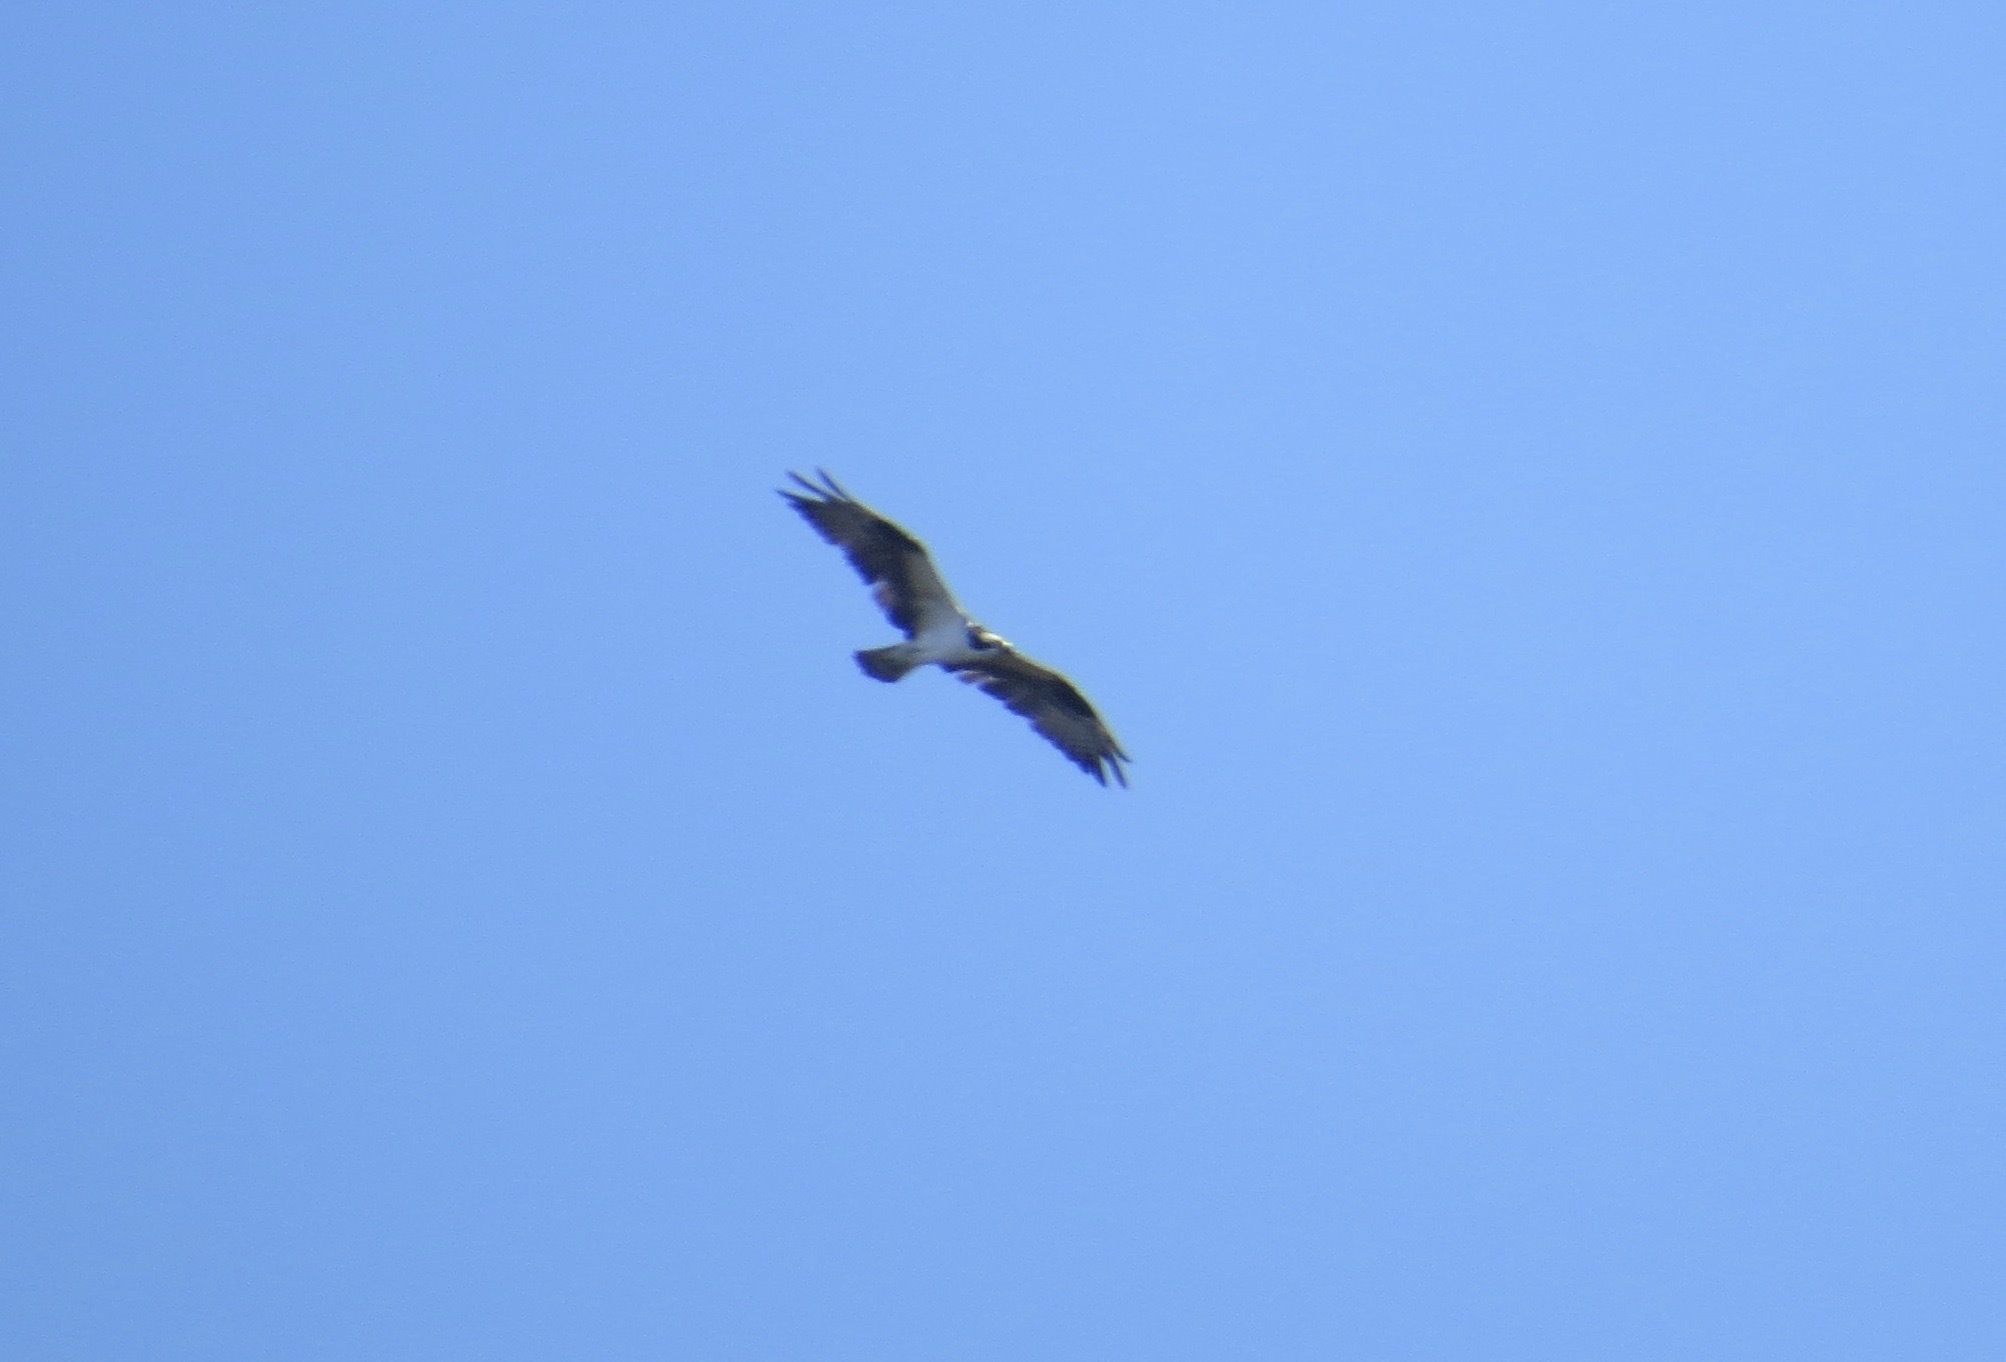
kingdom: Animalia
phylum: Chordata
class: Aves
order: Accipitriformes
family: Pandionidae
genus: Pandion
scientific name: Pandion haliaetus
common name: Osprey
